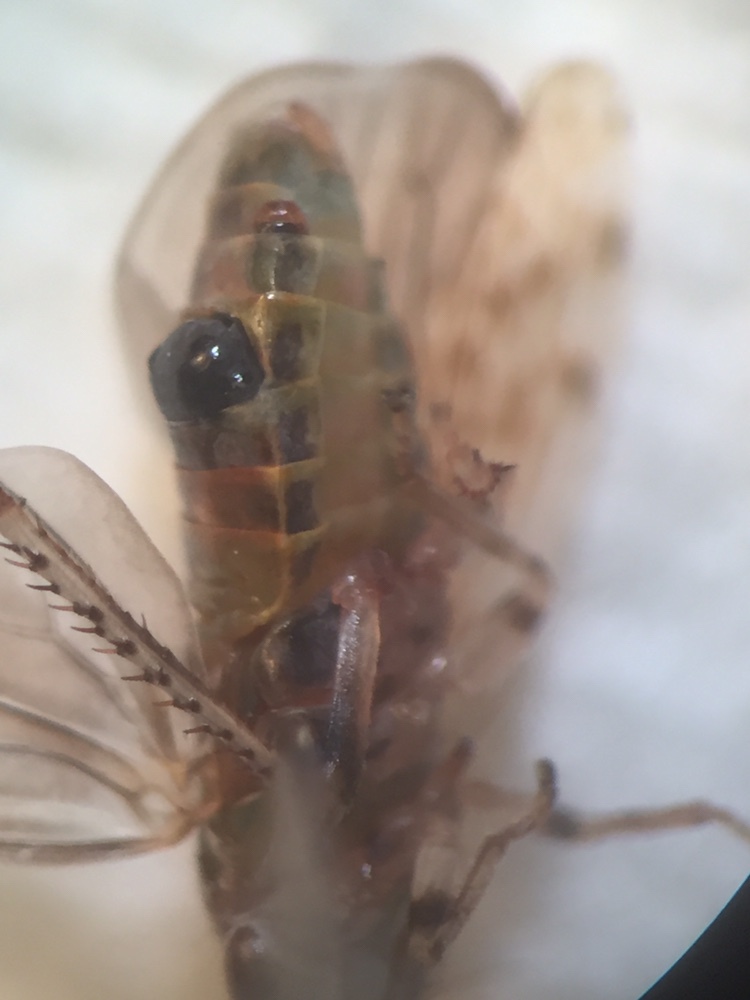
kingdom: Animalia
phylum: Arthropoda
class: Insecta
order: Strepsiptera
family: Halictophagidae
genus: Coriophagus
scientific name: Coriophagus casui
